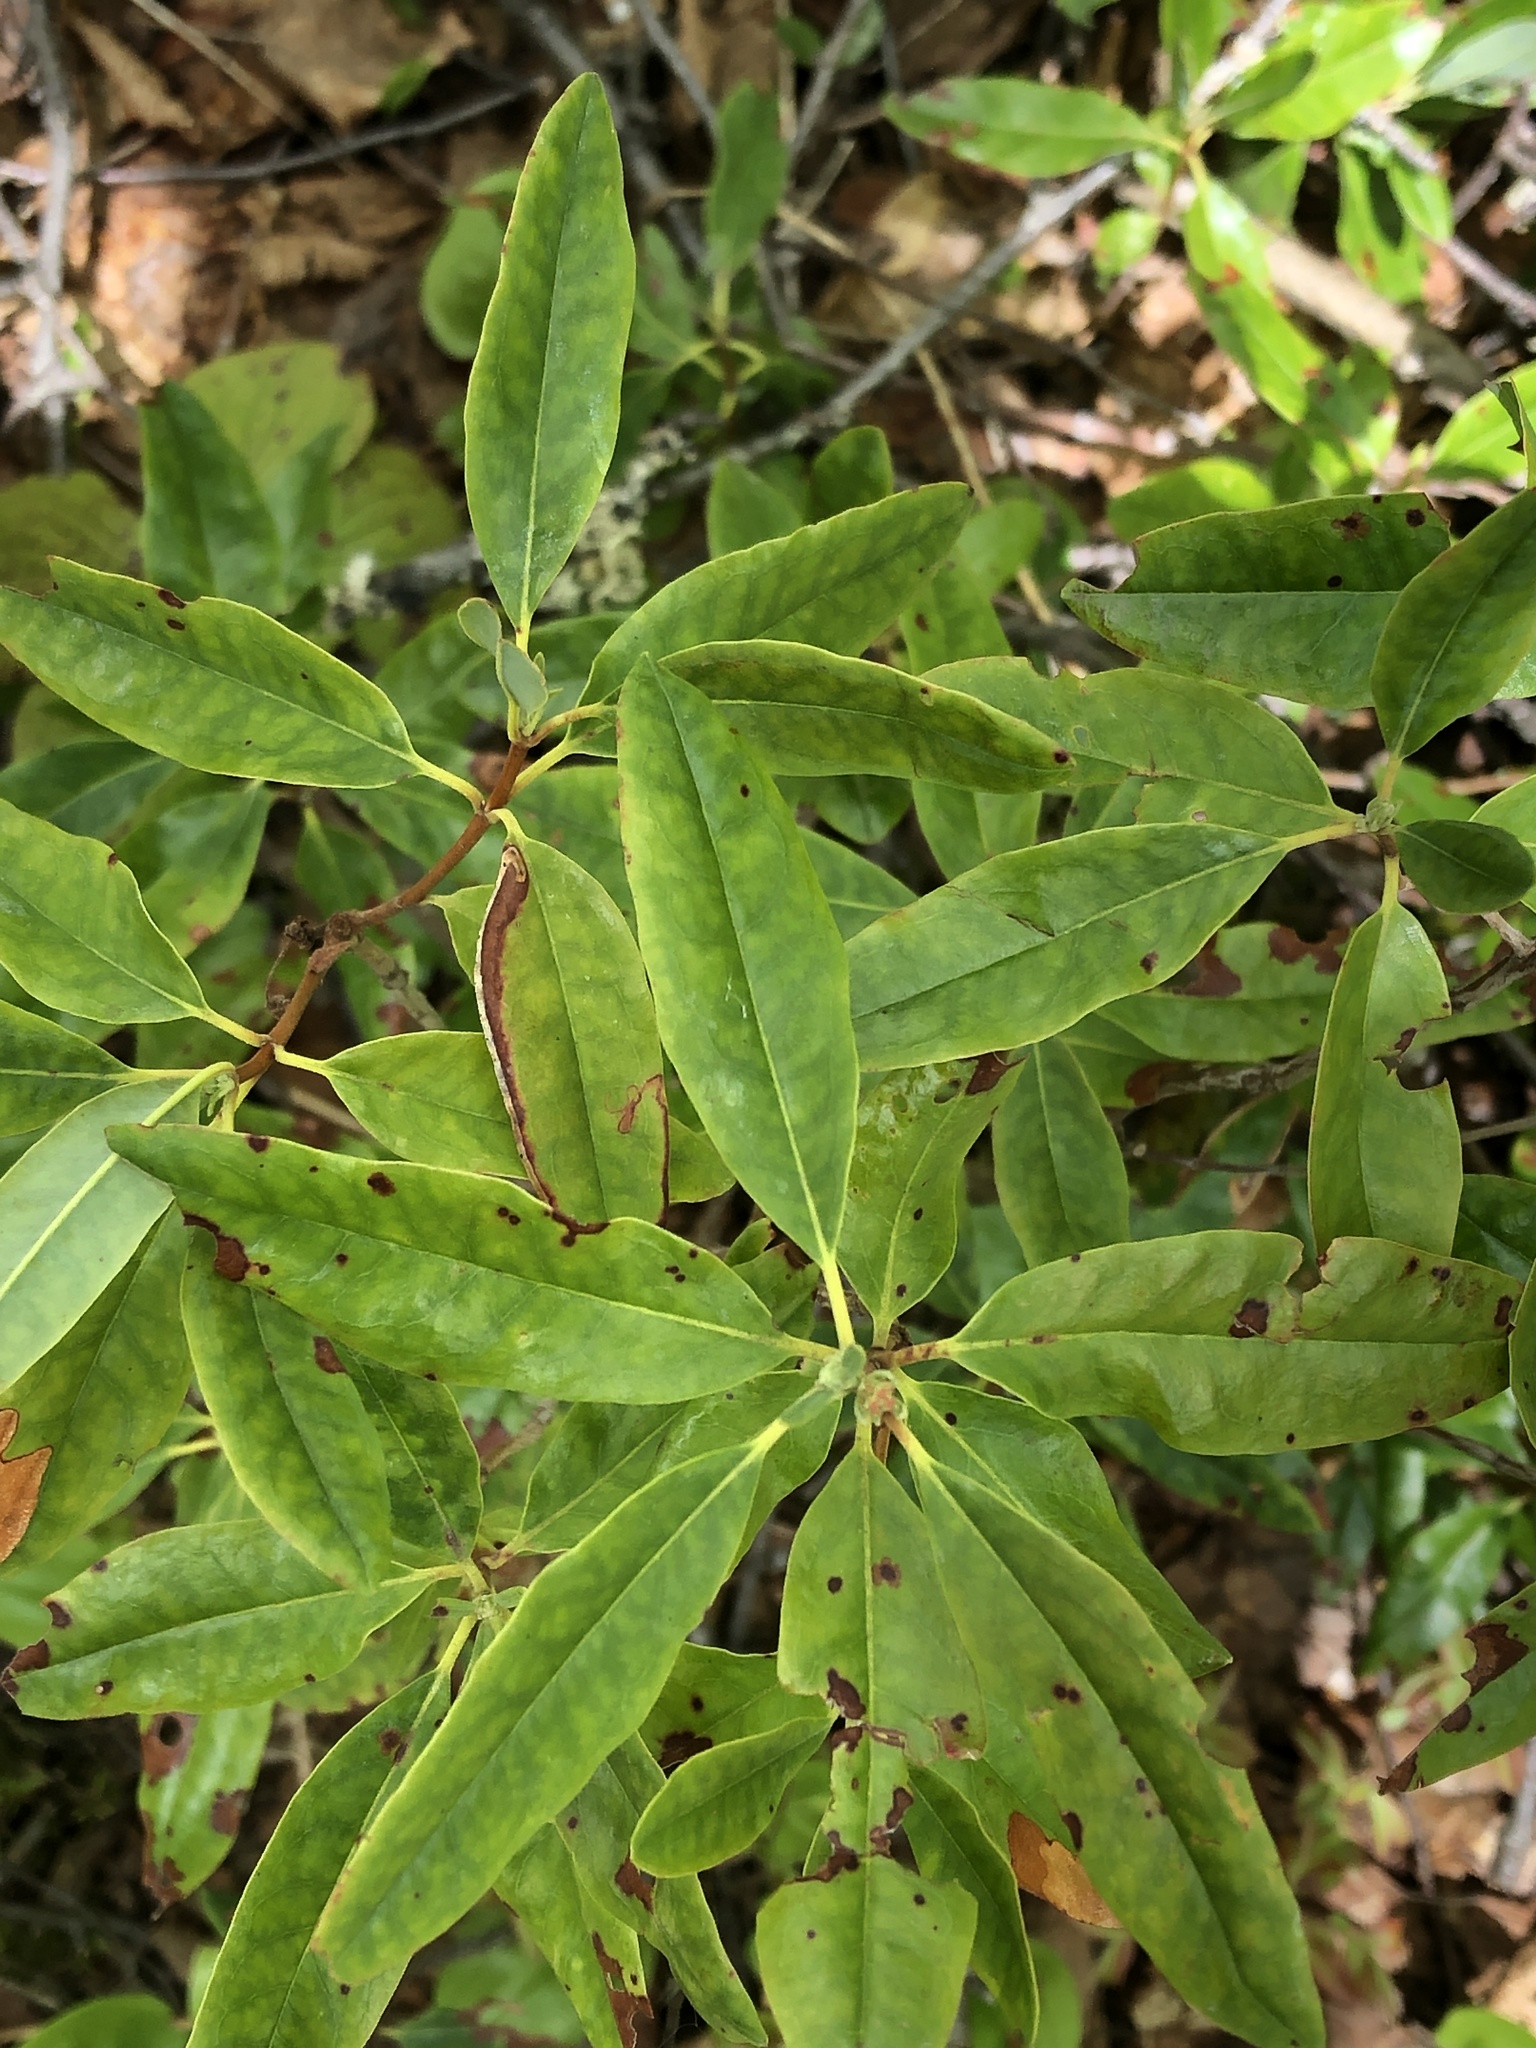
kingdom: Plantae
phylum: Tracheophyta
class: Magnoliopsida
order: Ericales
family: Ericaceae
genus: Kalmia
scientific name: Kalmia angustifolia
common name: Sheep-laurel
